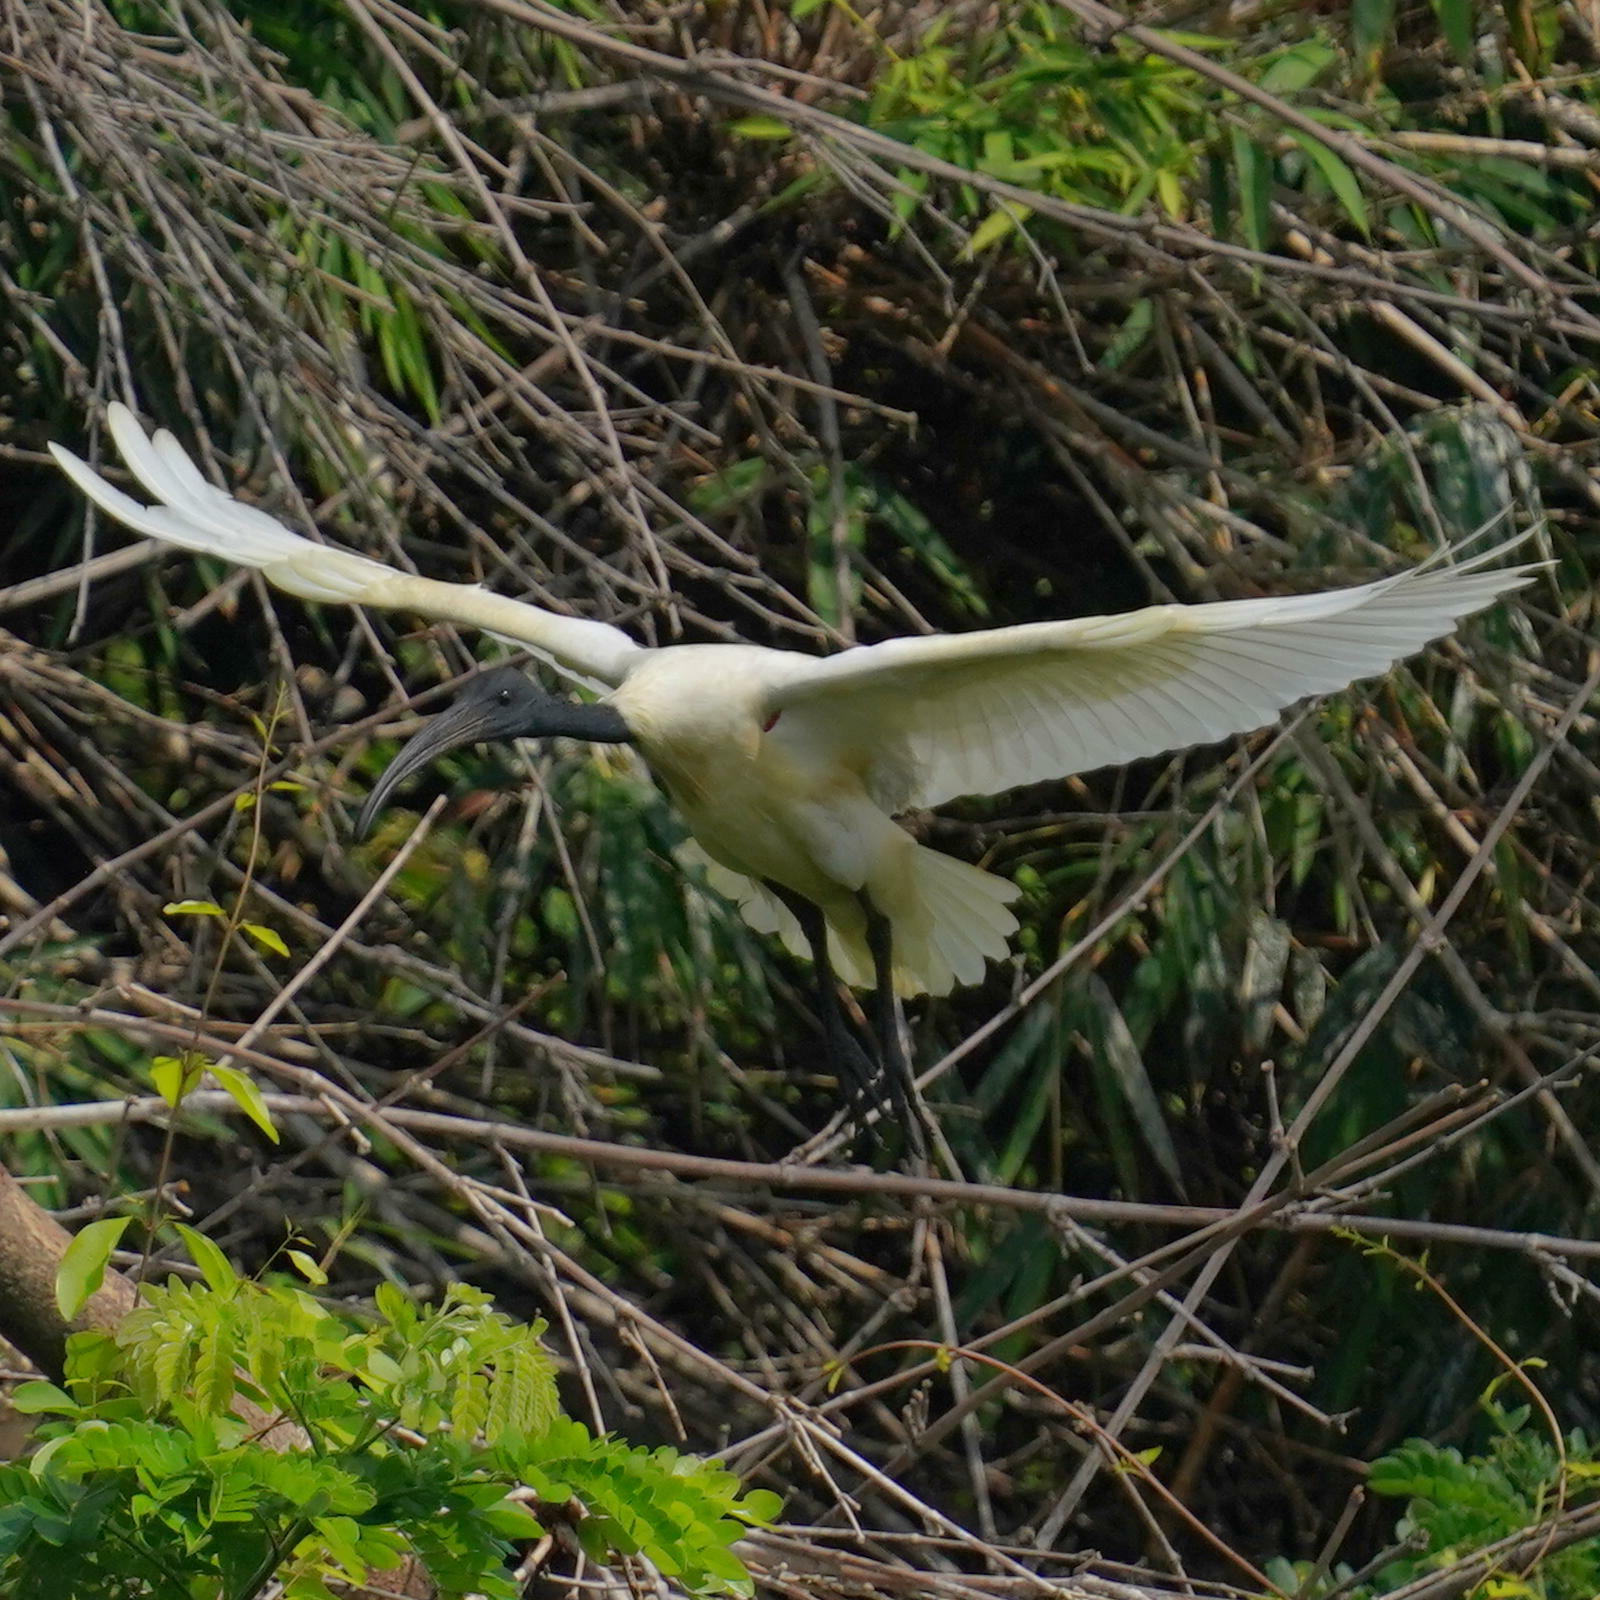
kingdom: Animalia
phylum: Chordata
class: Aves
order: Pelecaniformes
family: Threskiornithidae
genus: Threskiornis
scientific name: Threskiornis melanocephalus
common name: Black-headed ibis
